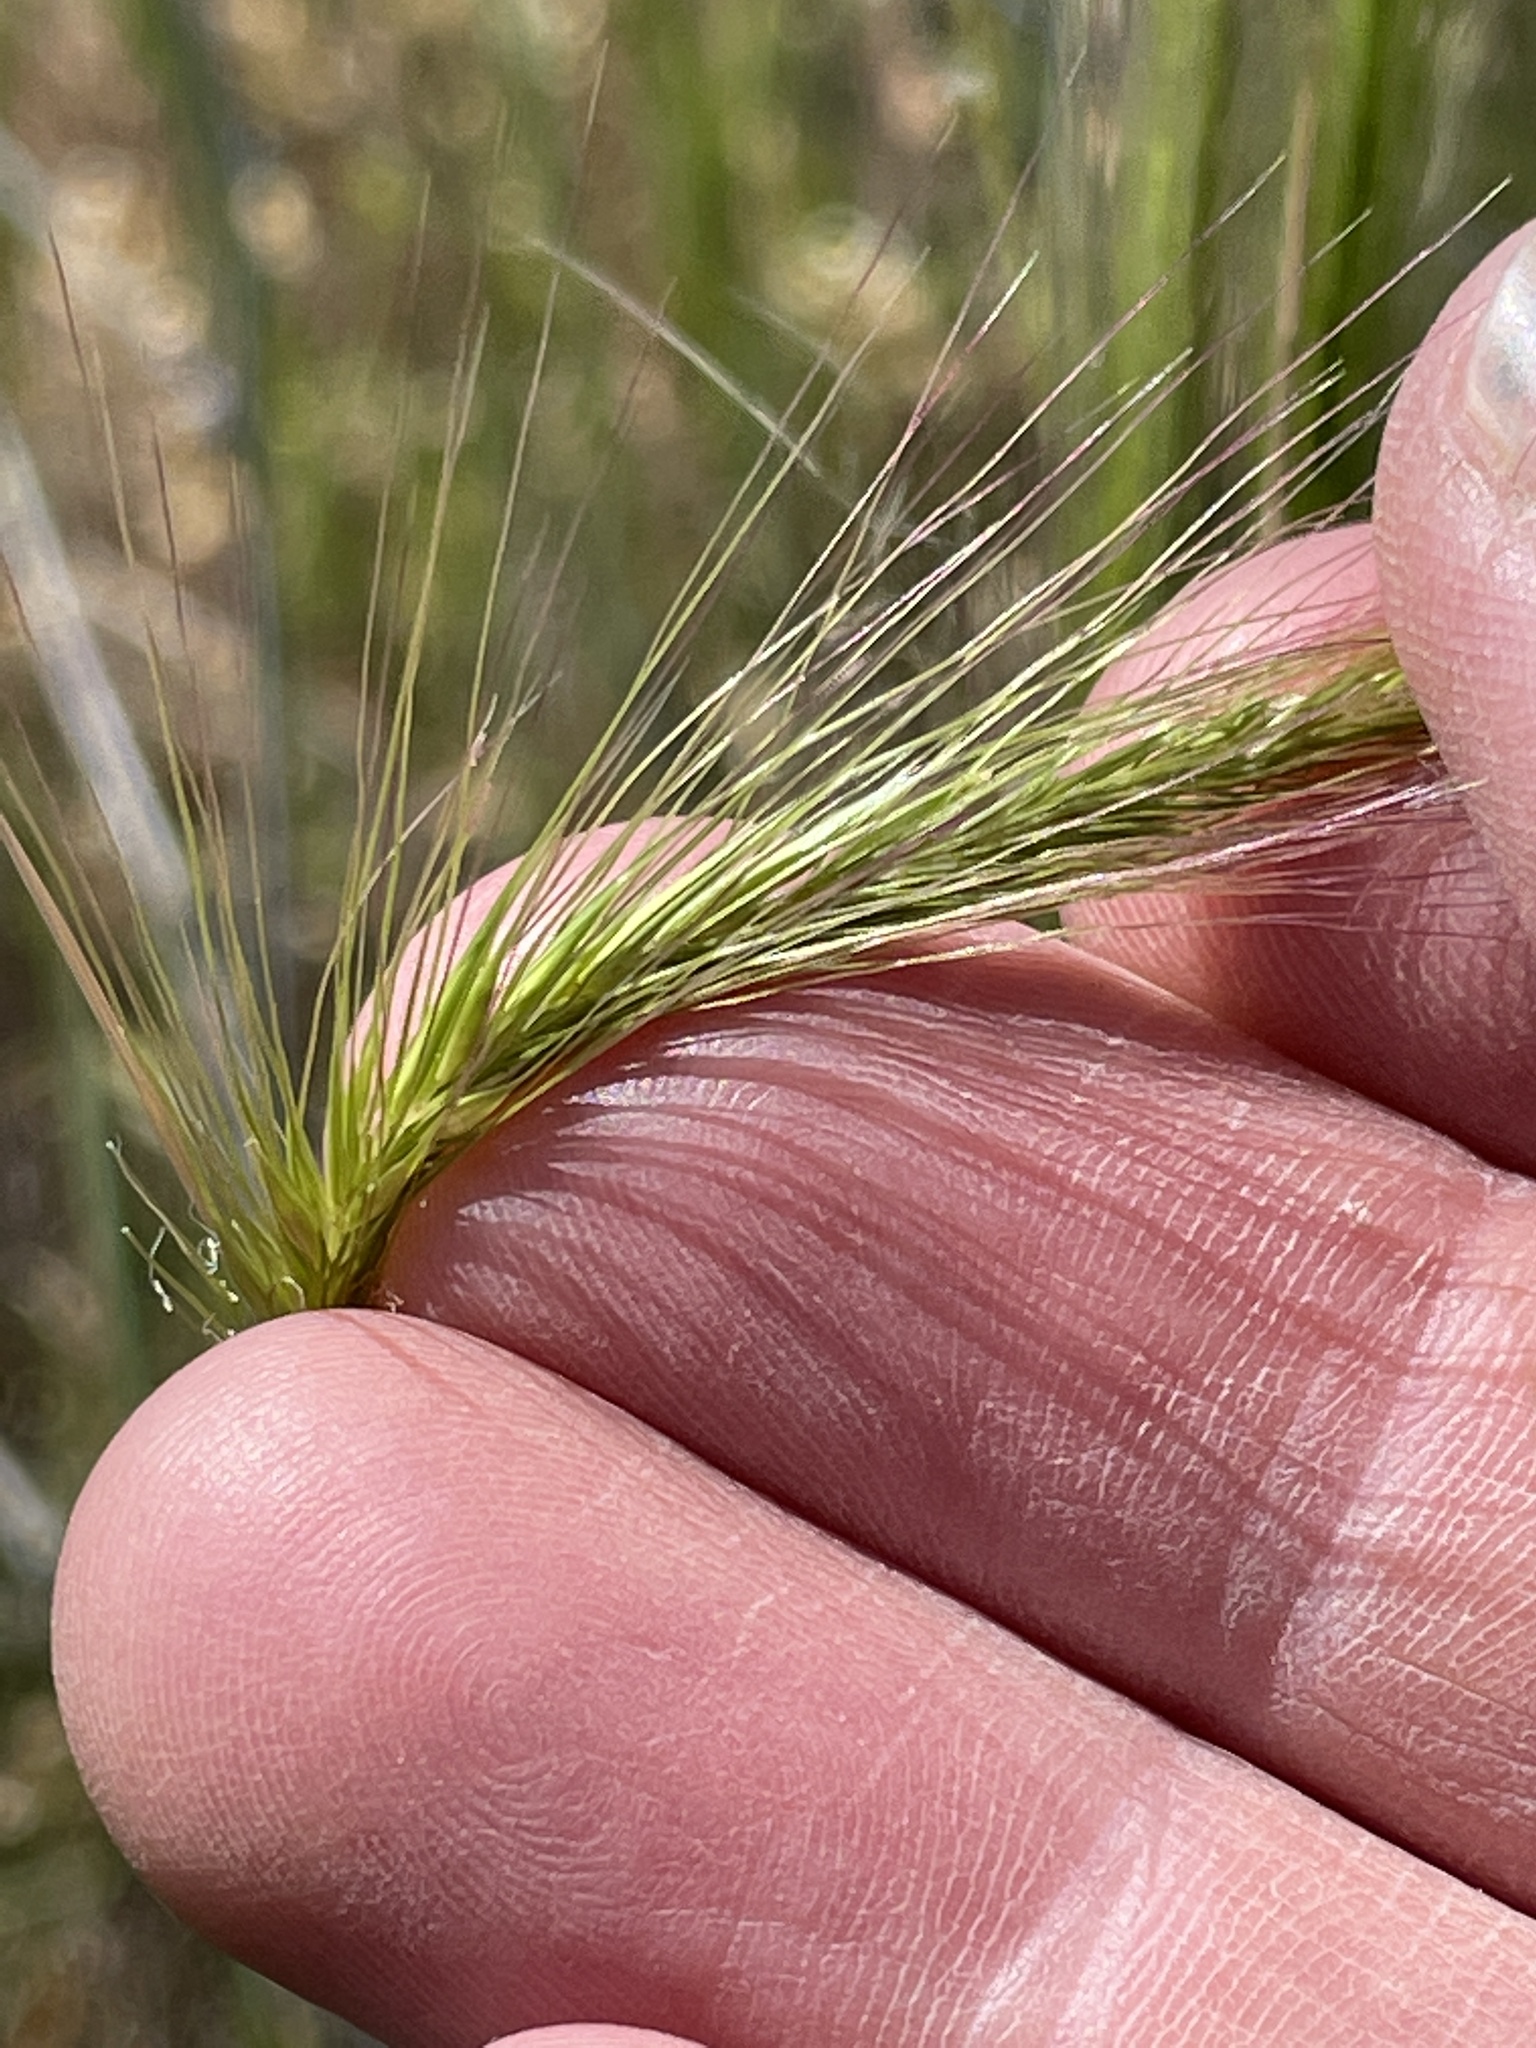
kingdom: Plantae
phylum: Tracheophyta
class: Liliopsida
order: Poales
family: Poaceae
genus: Hordeum
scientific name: Hordeum jubatum
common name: Foxtail barley
